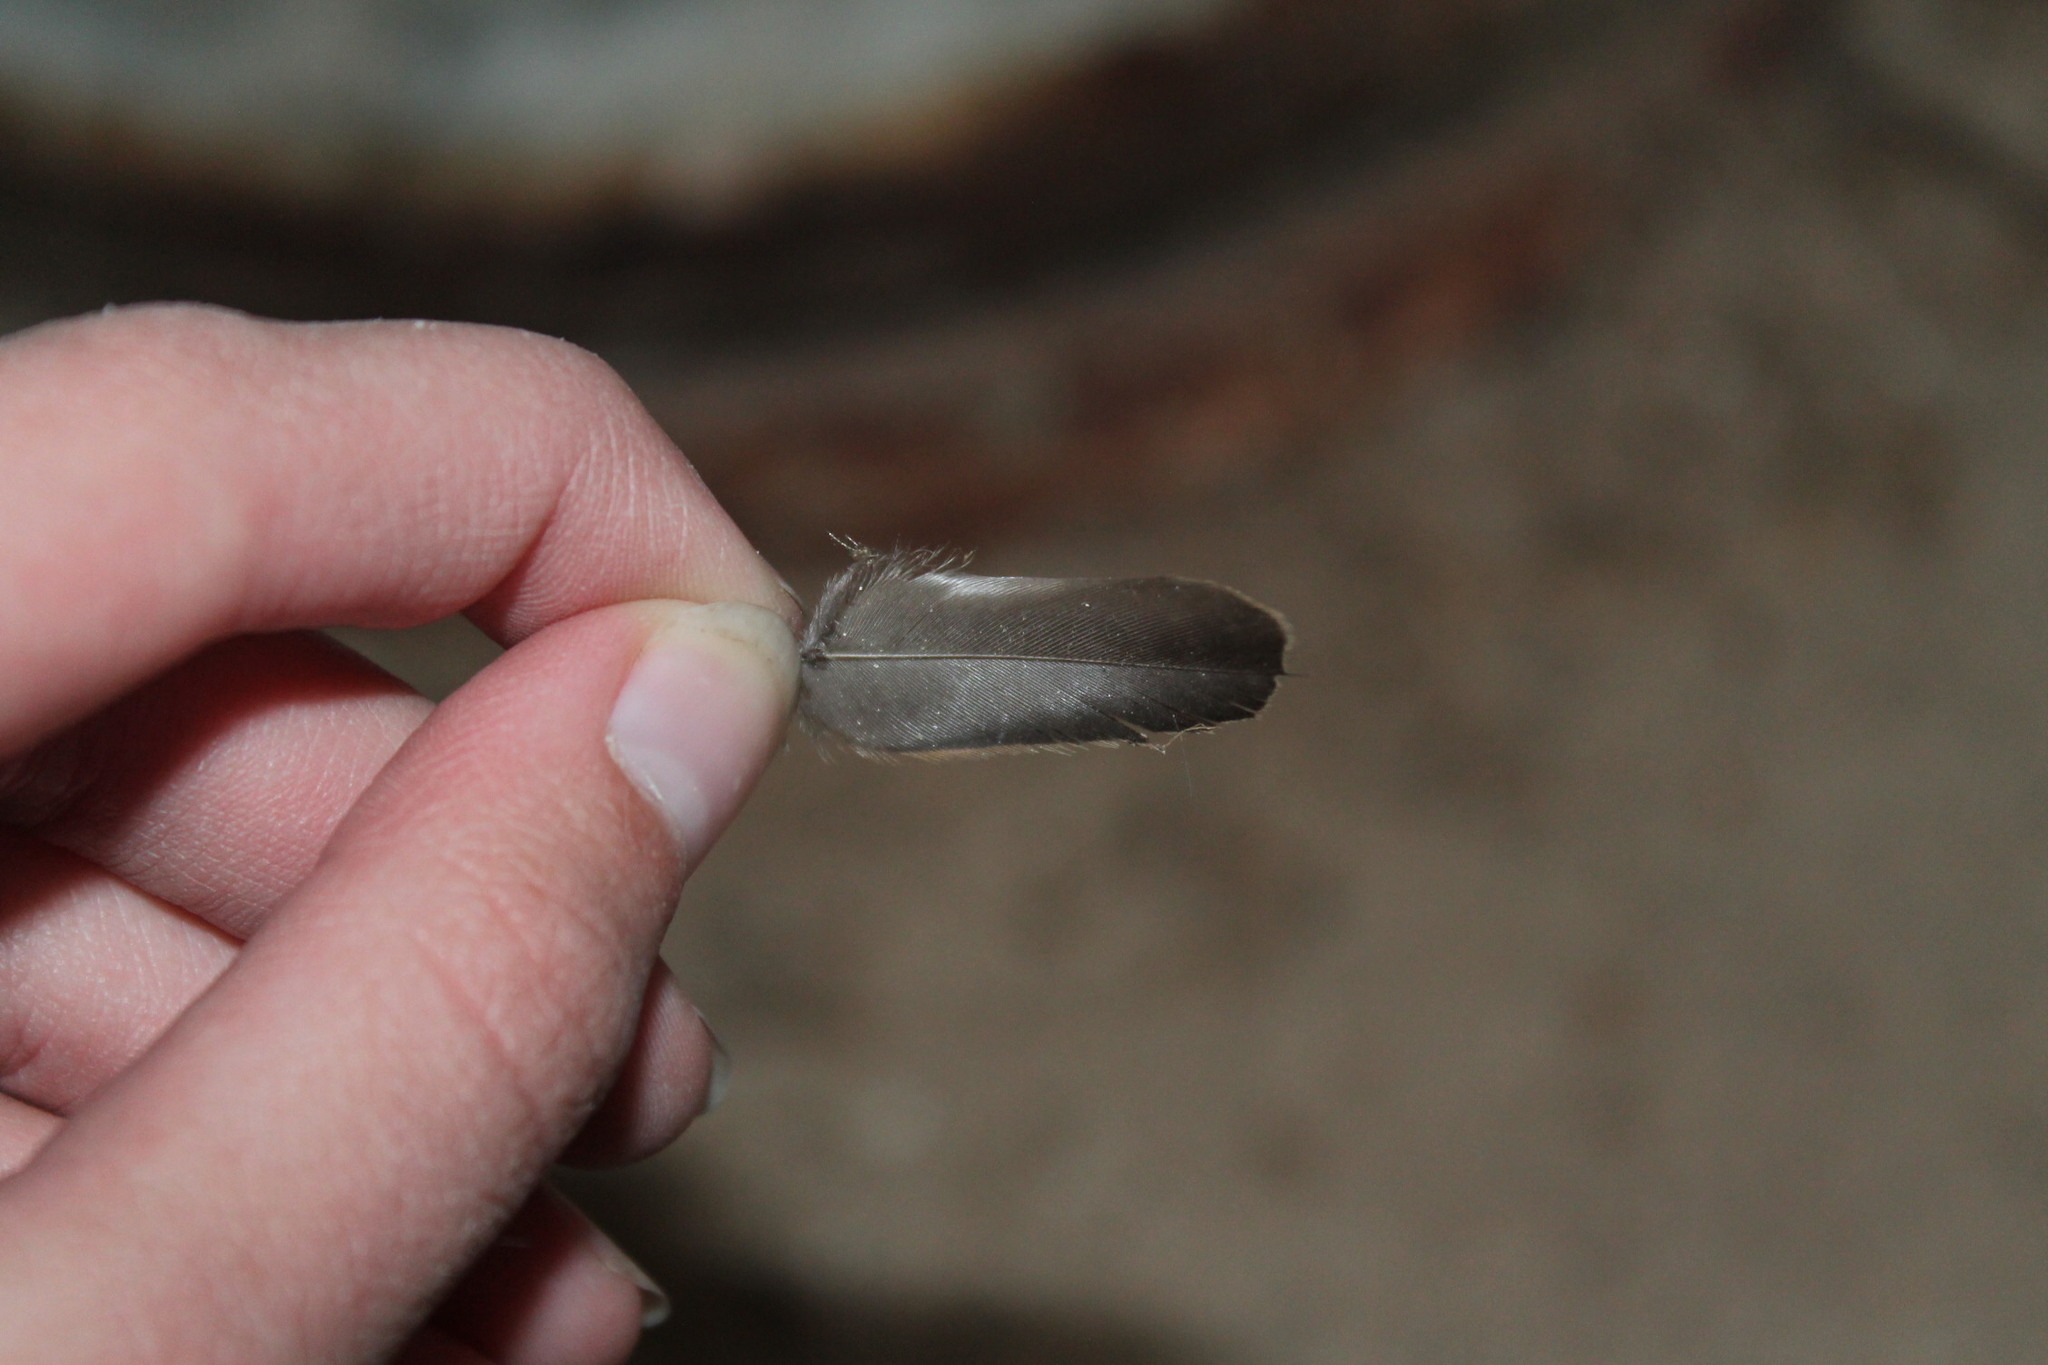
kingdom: Animalia
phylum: Chordata
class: Aves
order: Passeriformes
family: Sturnidae
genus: Sturnus
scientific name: Sturnus vulgaris
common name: Common starling
